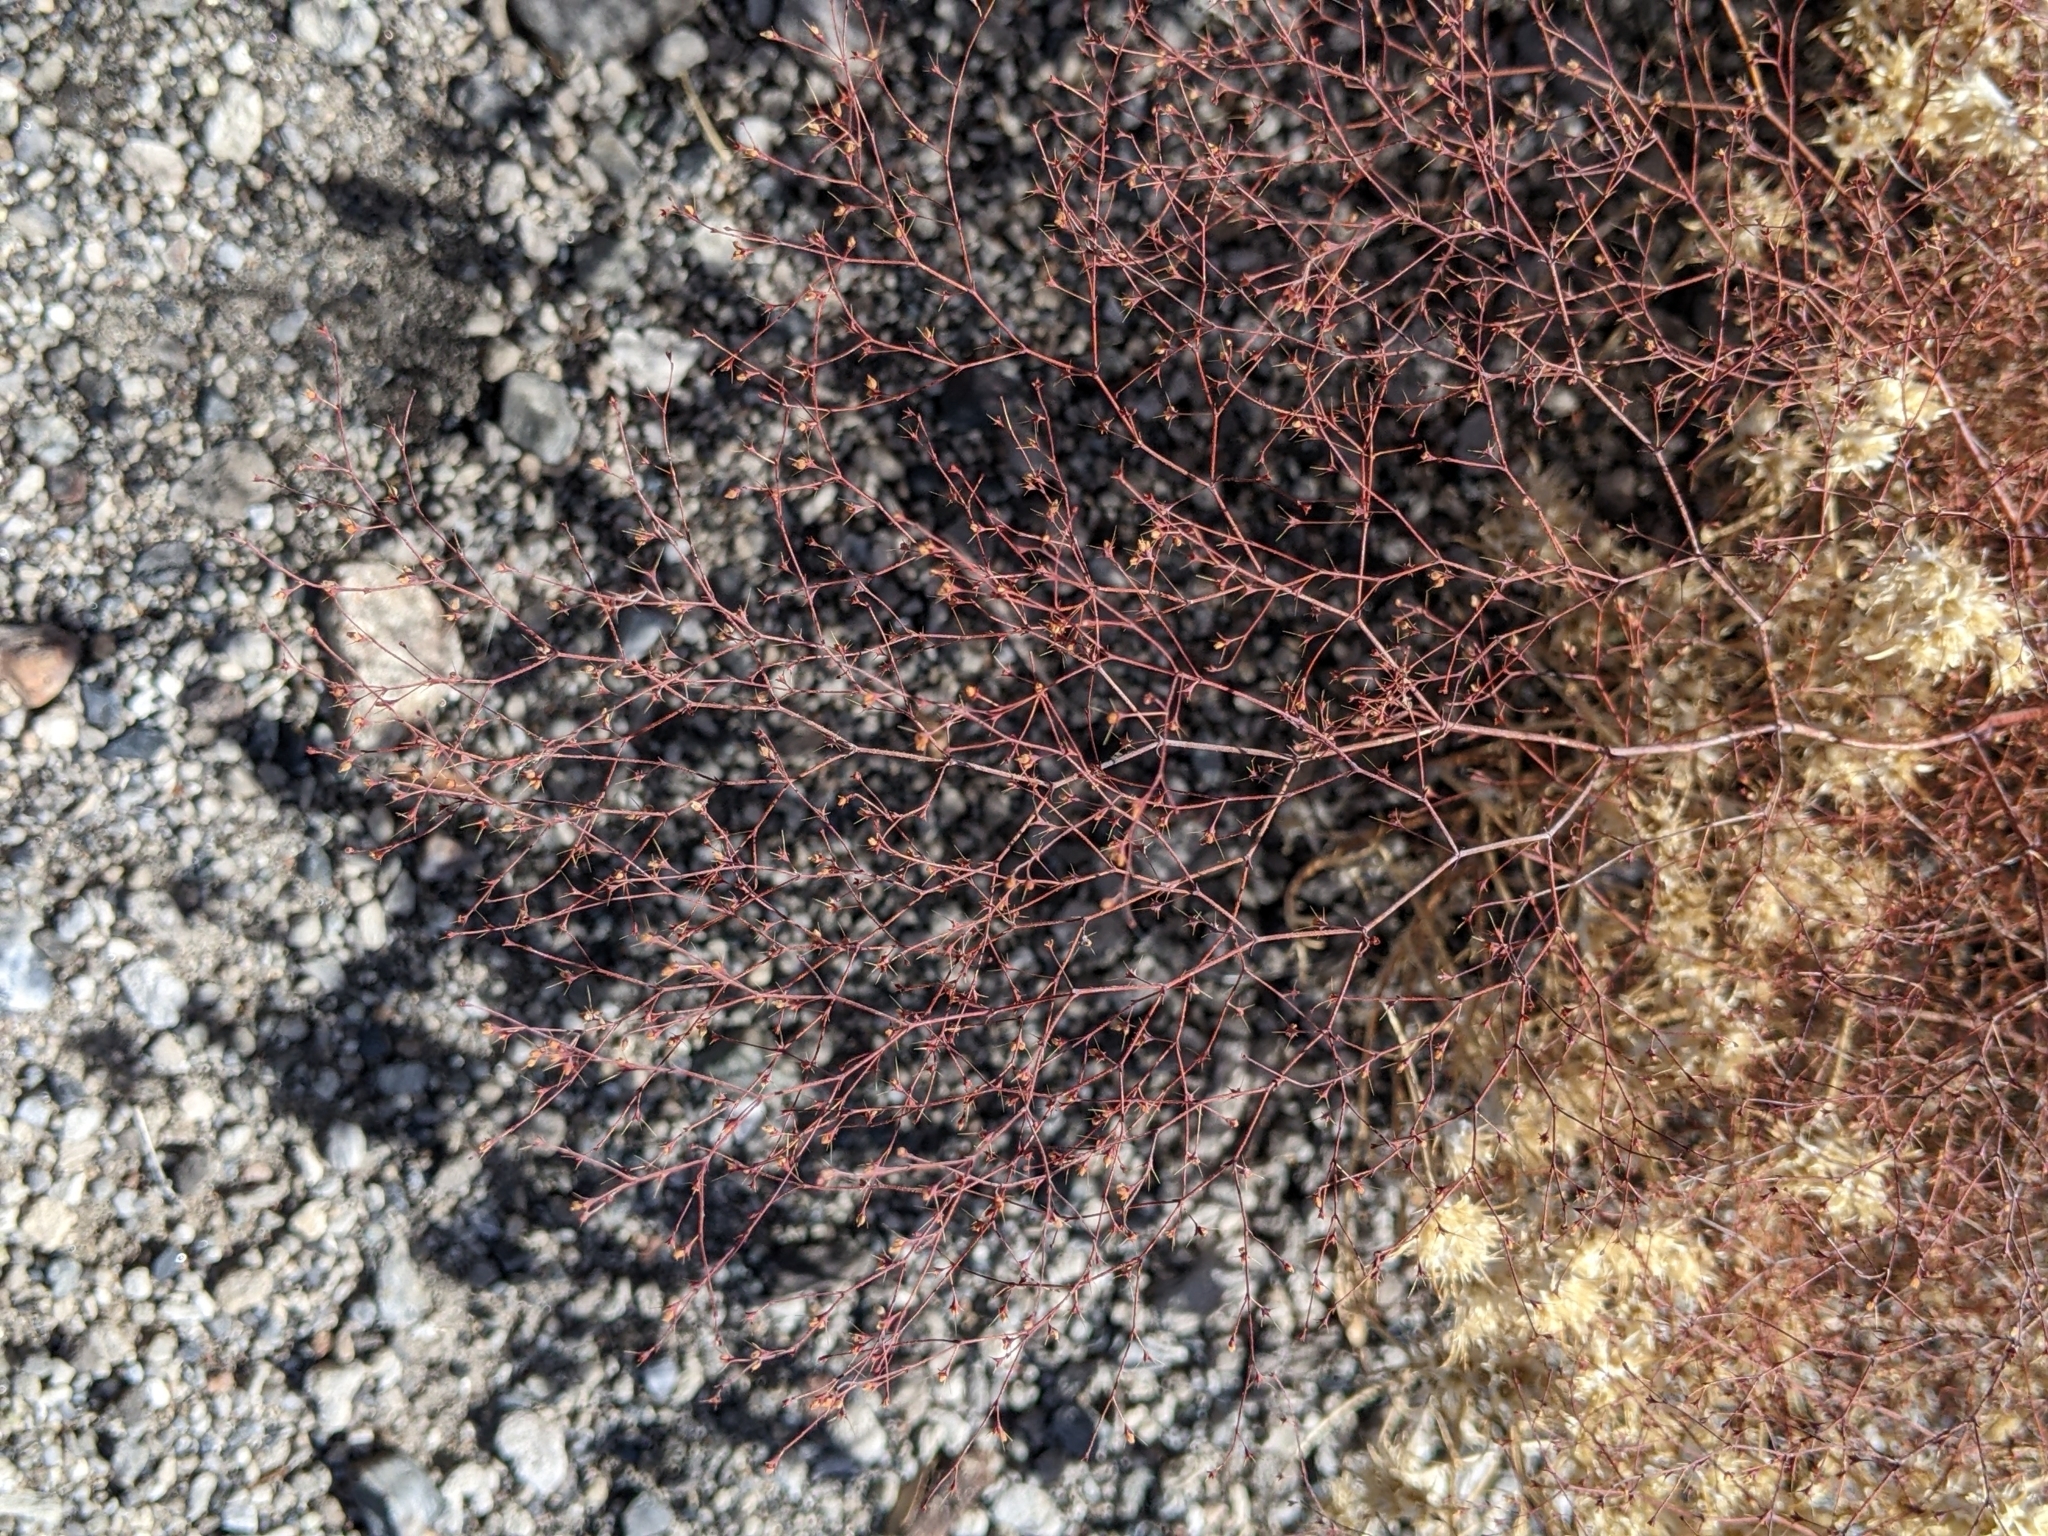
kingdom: Plantae
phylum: Tracheophyta
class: Magnoliopsida
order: Caryophyllales
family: Polygonaceae
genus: Oxytheca
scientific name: Oxytheca dendroidea
